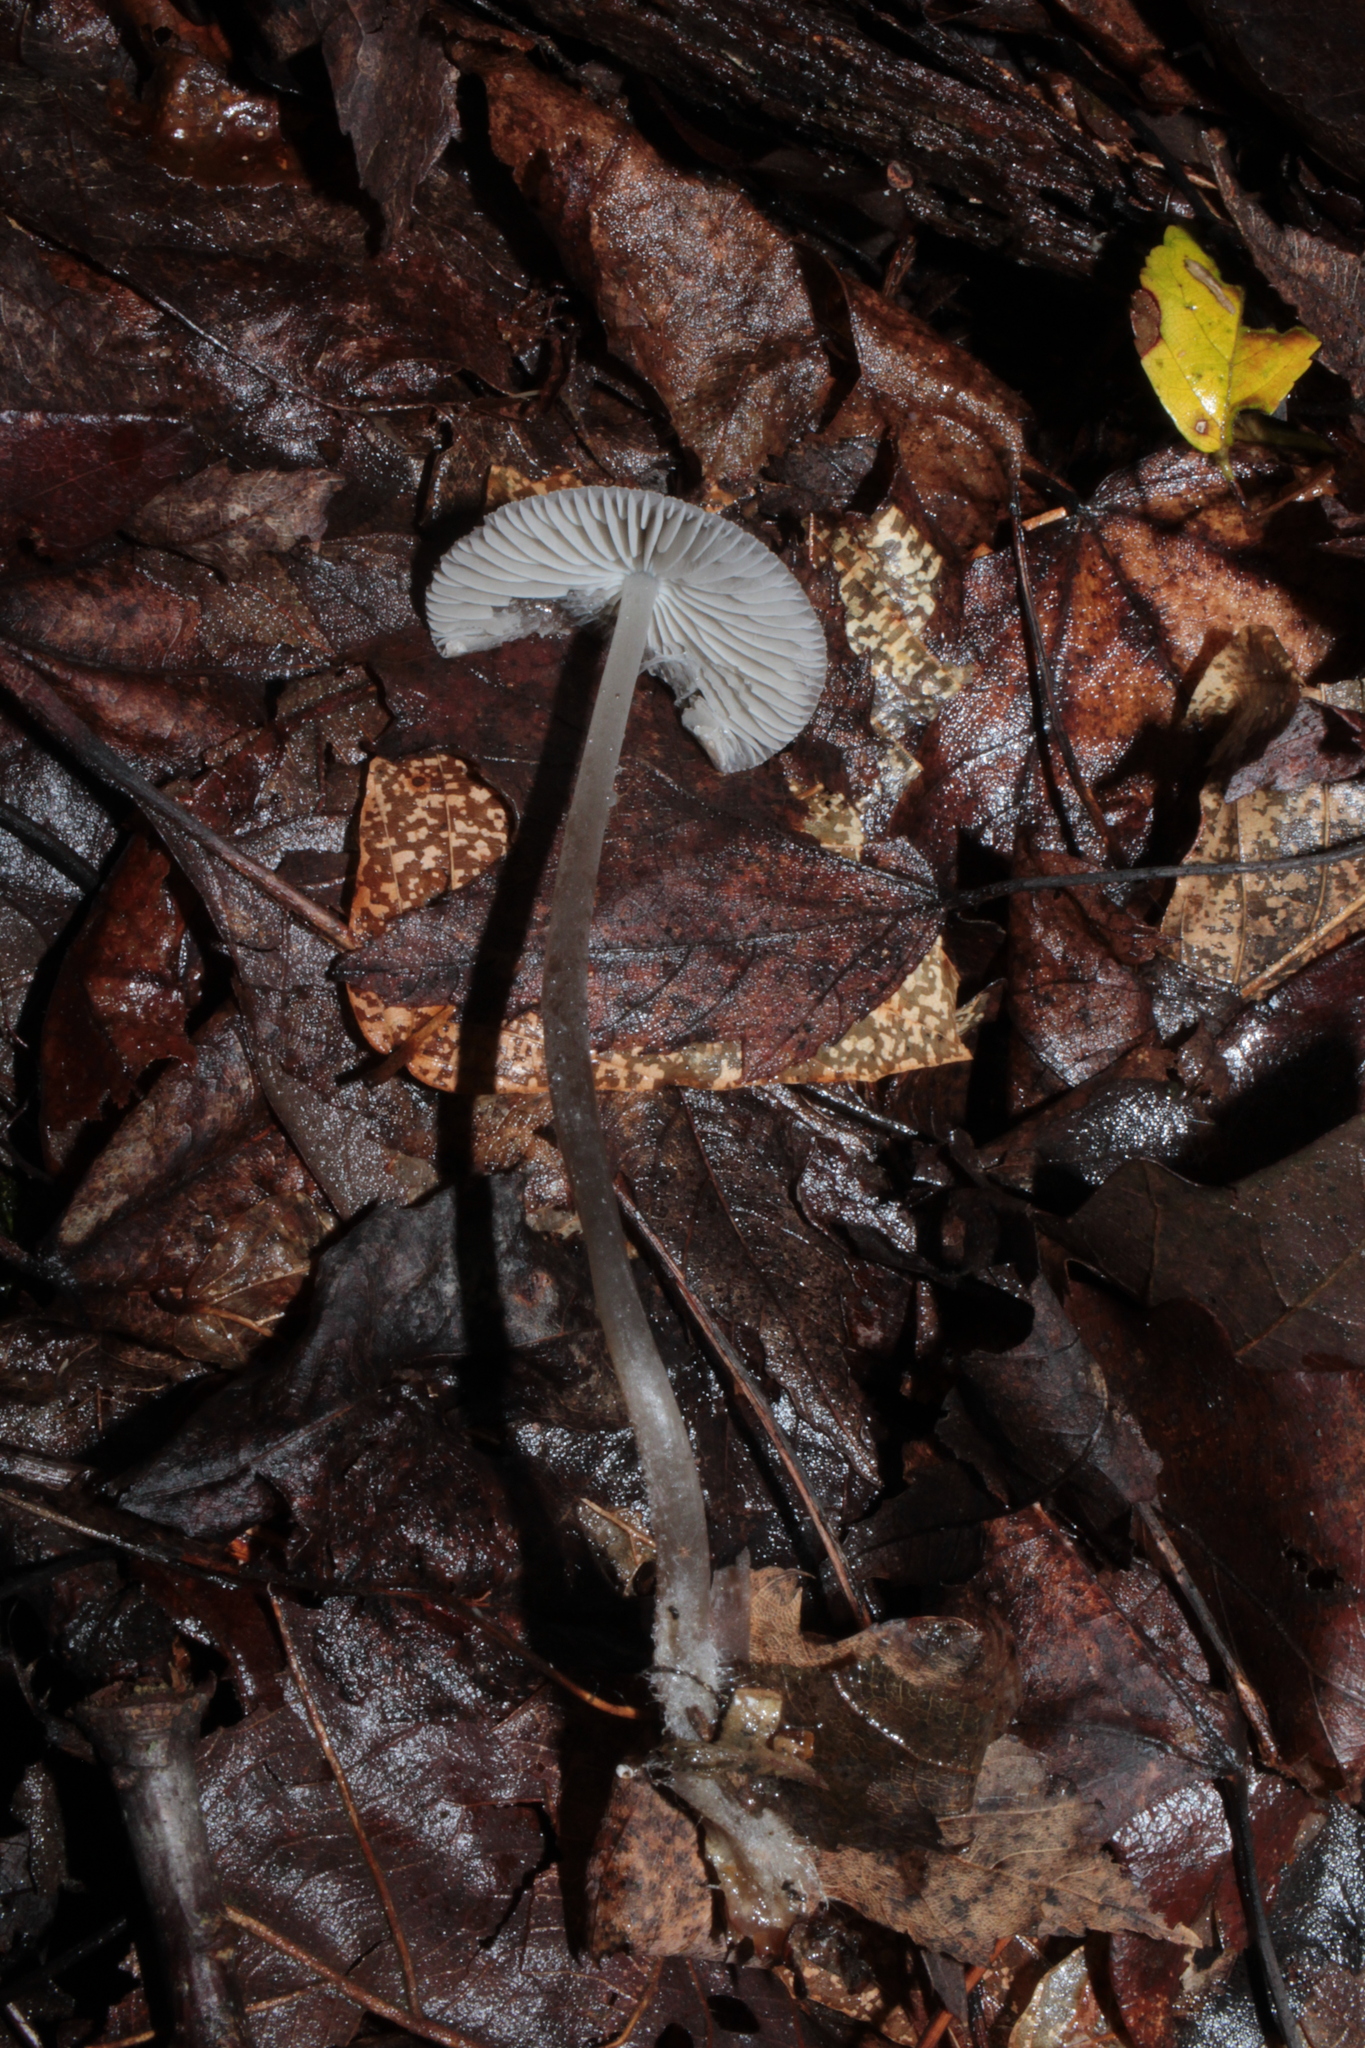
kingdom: Fungi
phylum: Basidiomycota
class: Agaricomycetes
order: Agaricales
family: Mycenaceae
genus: Mycena
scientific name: Mycena abramsii
